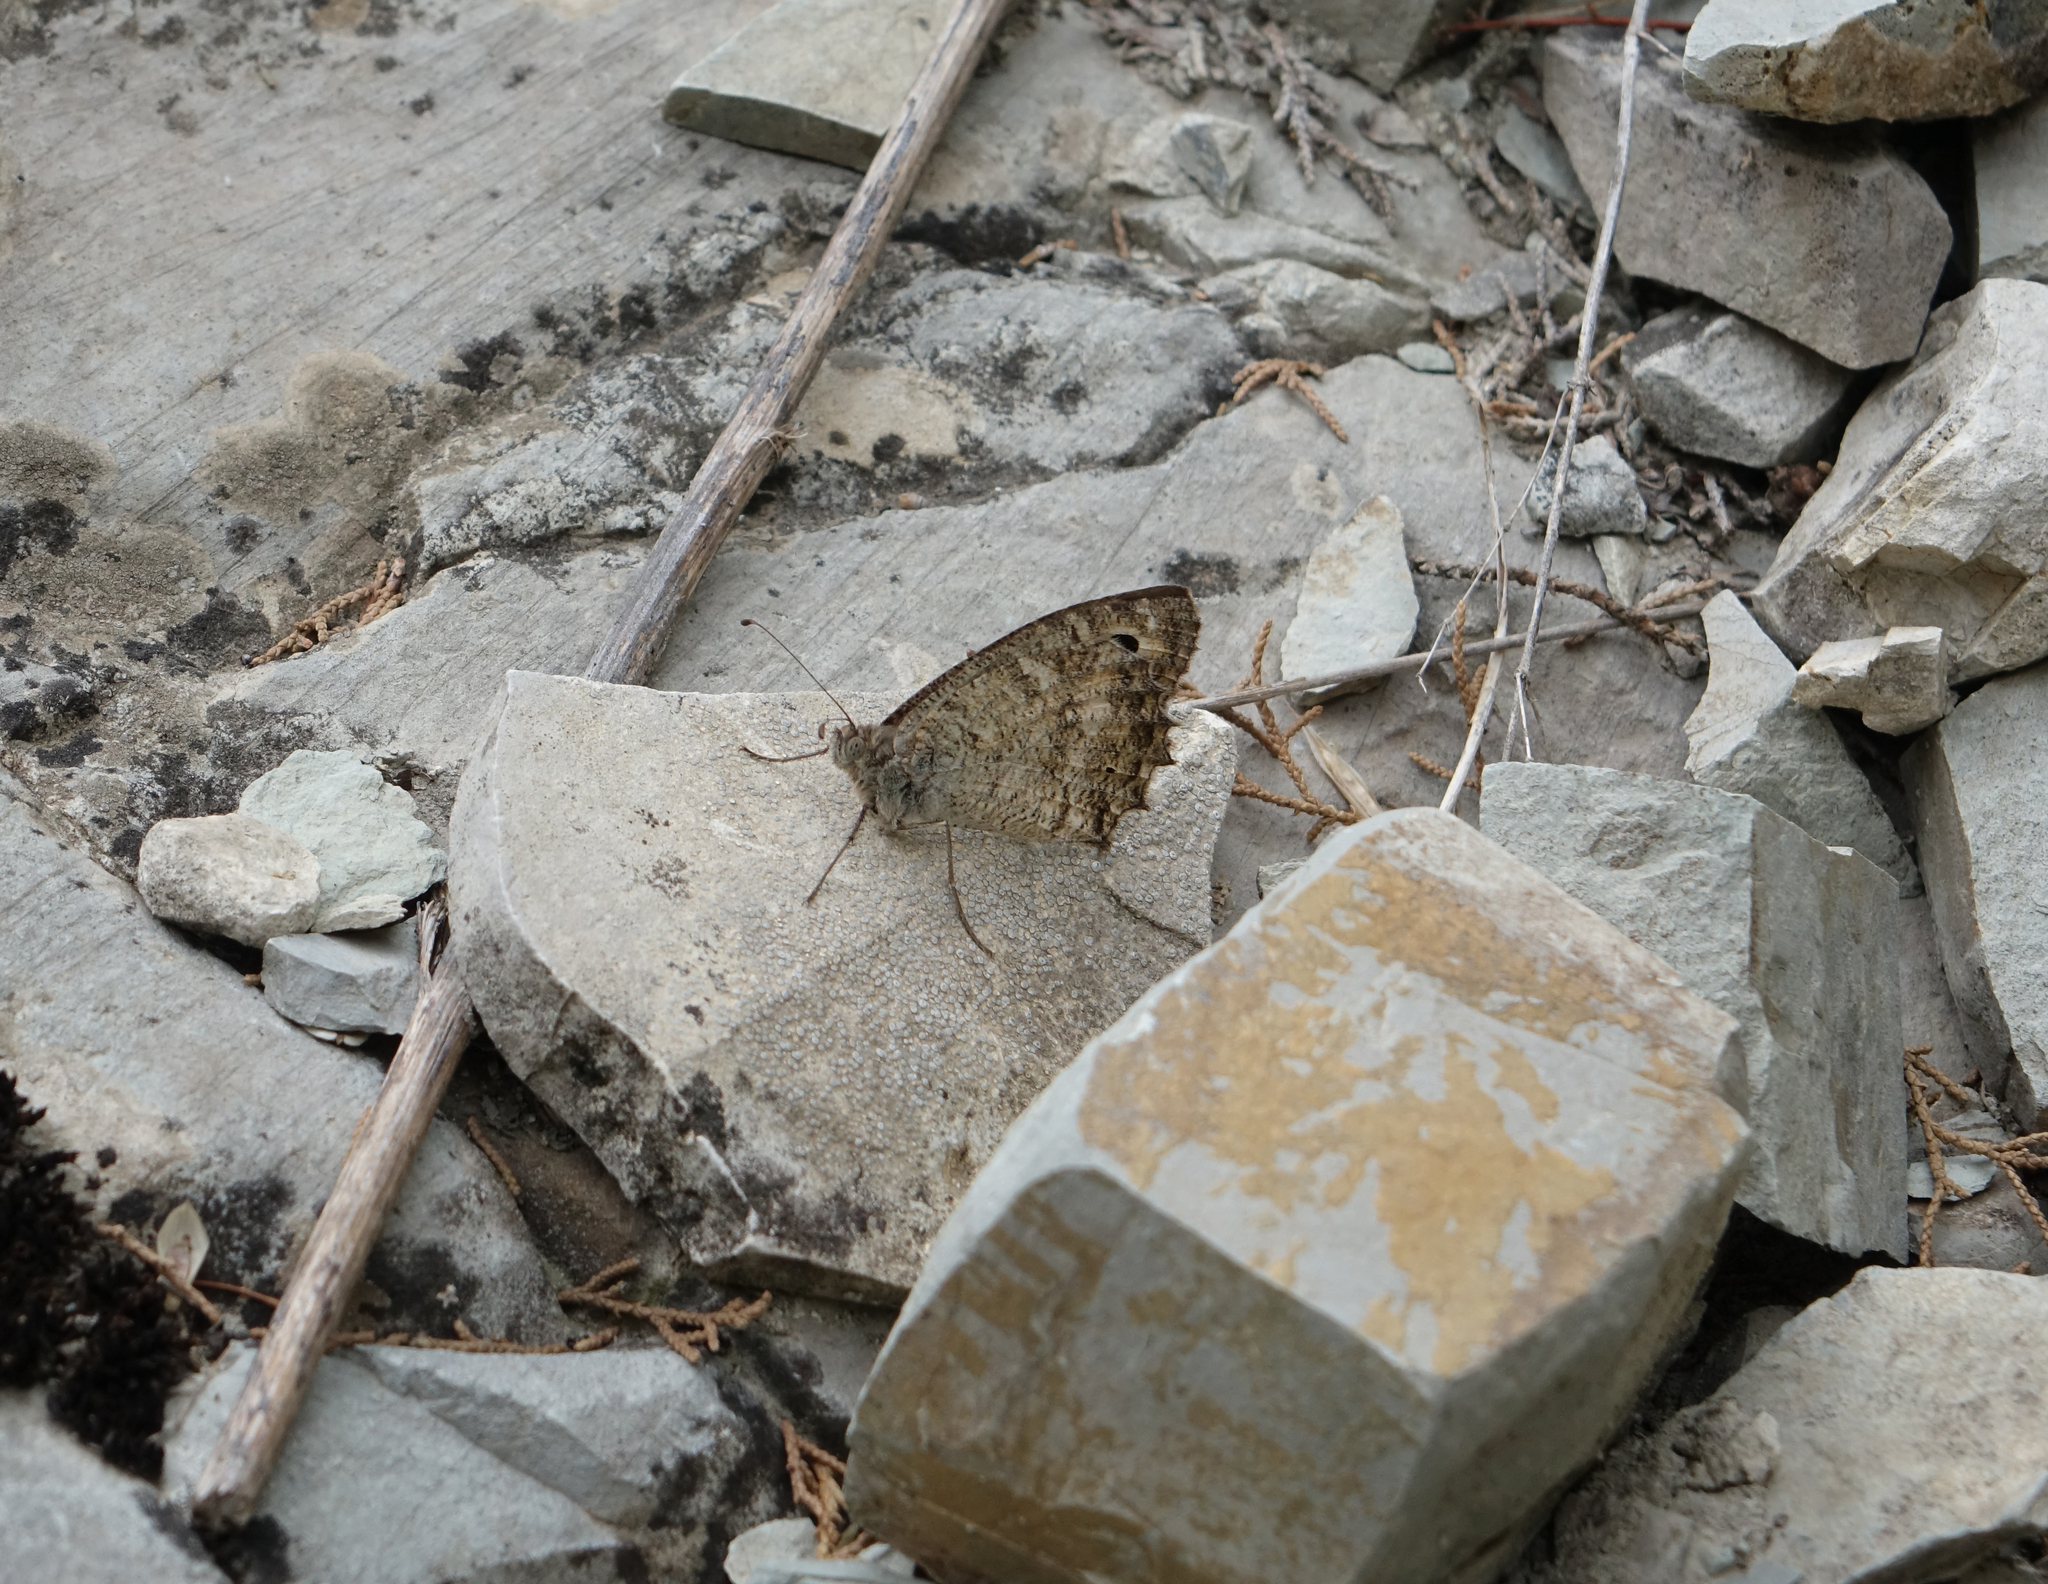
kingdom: Animalia
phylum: Arthropoda
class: Insecta
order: Lepidoptera
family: Nymphalidae
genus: Pseudochazara
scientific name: Pseudochazara pelopea
